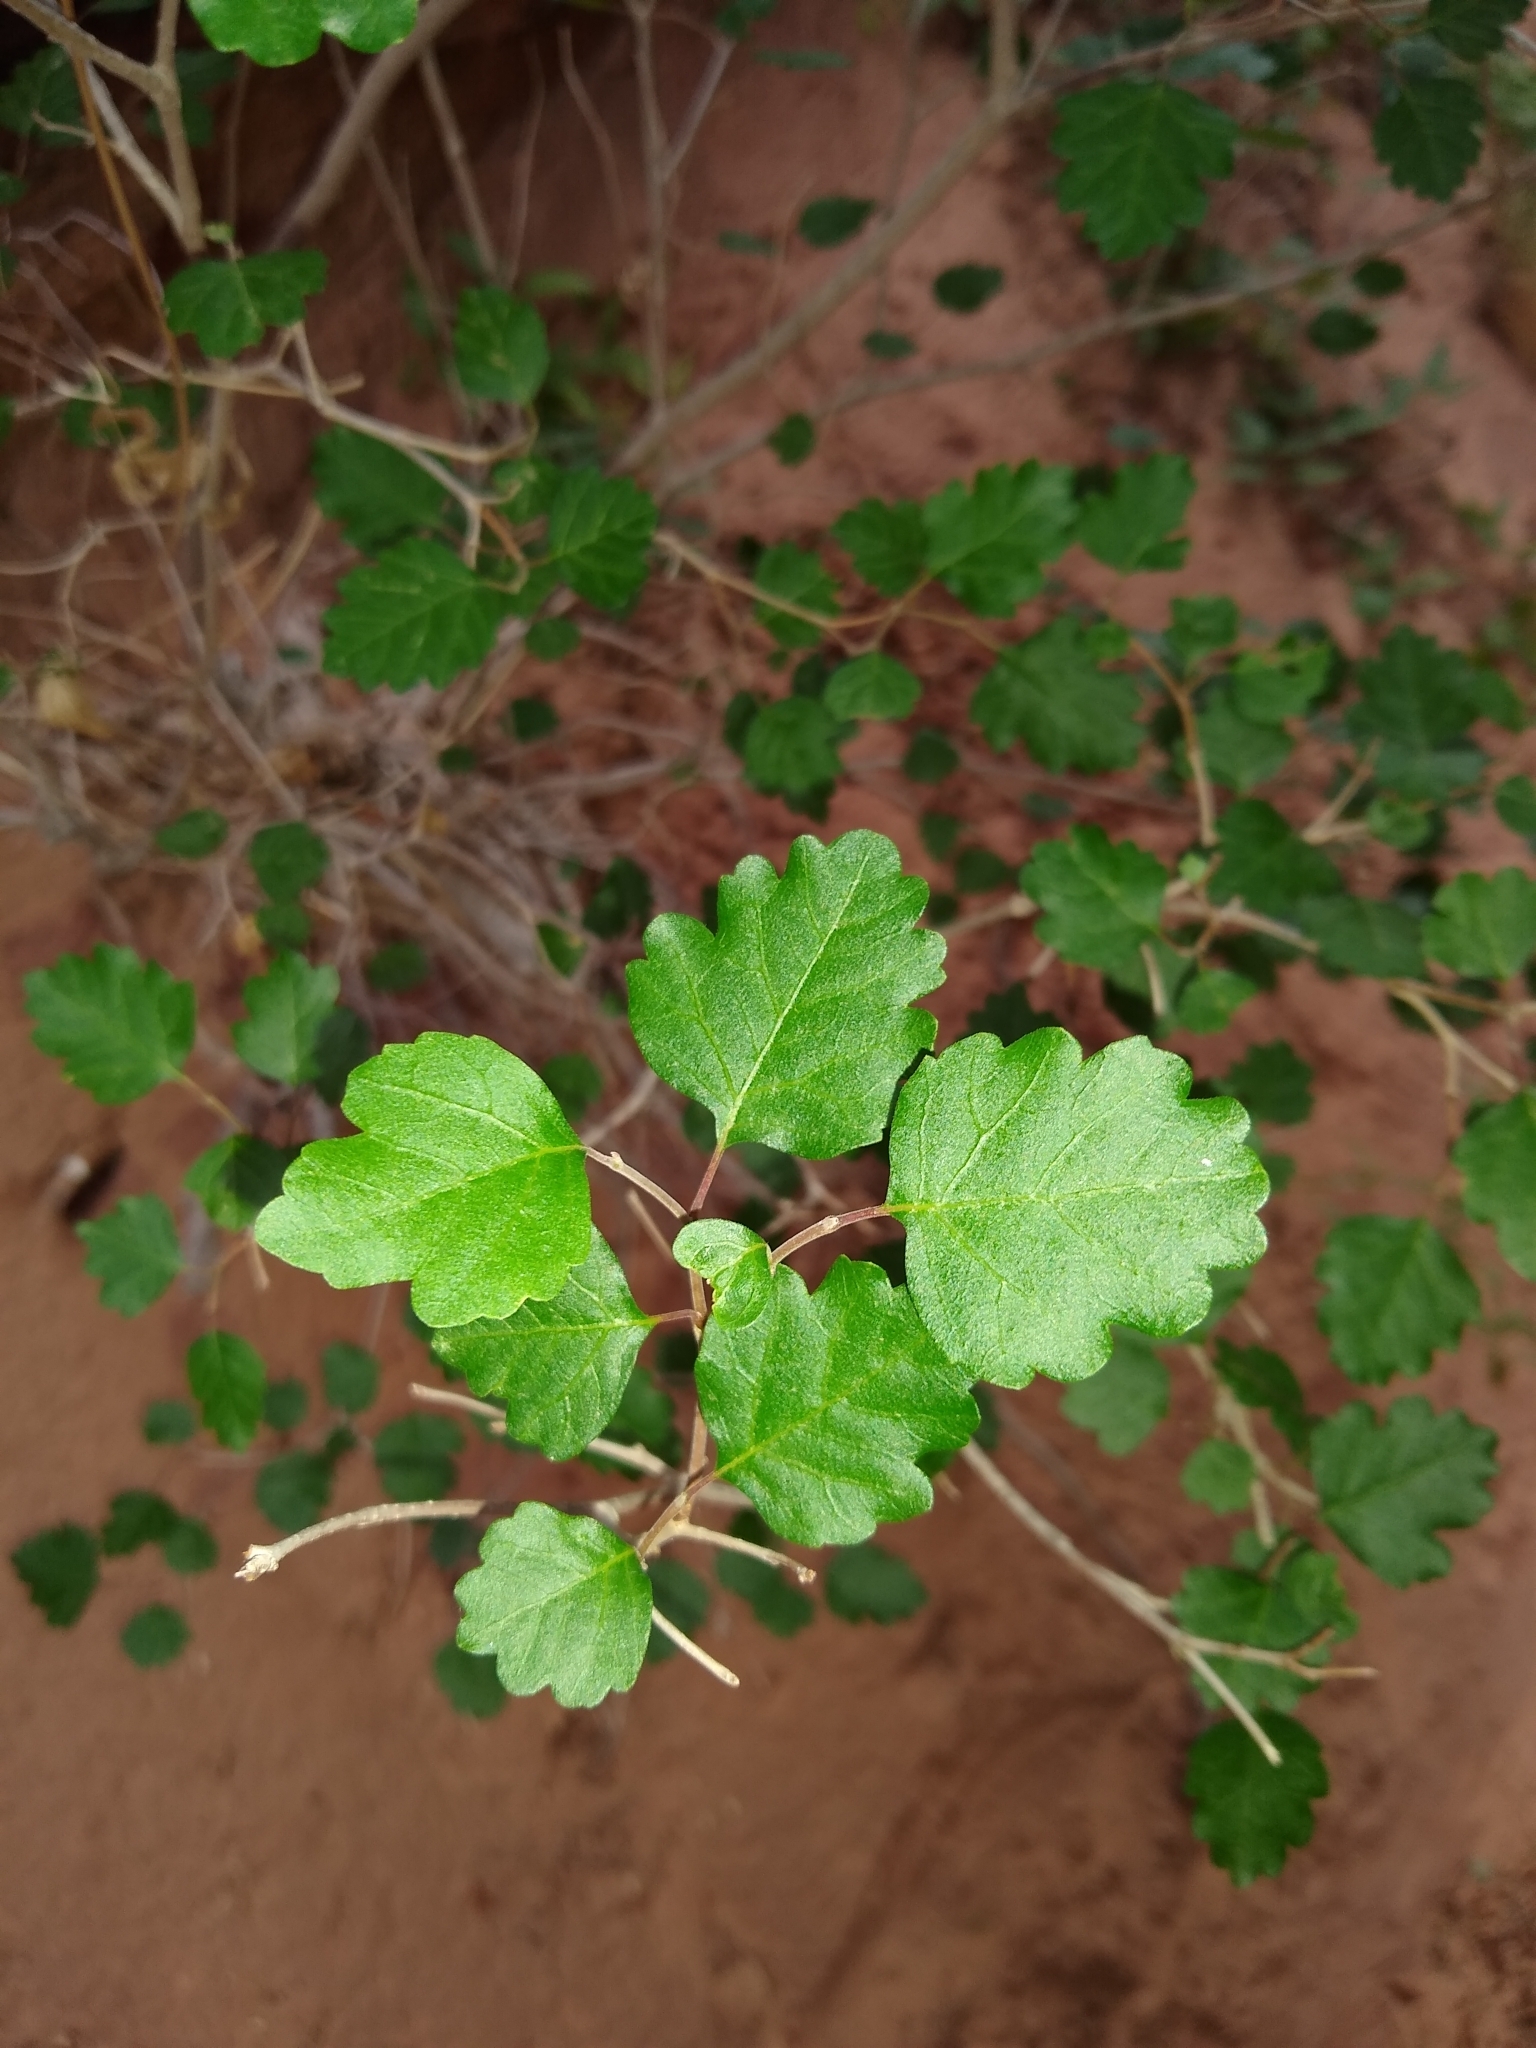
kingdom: Plantae
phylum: Tracheophyta
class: Magnoliopsida
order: Sapindales
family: Anacardiaceae
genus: Rhus
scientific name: Rhus aromatica
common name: Aromatic sumac
